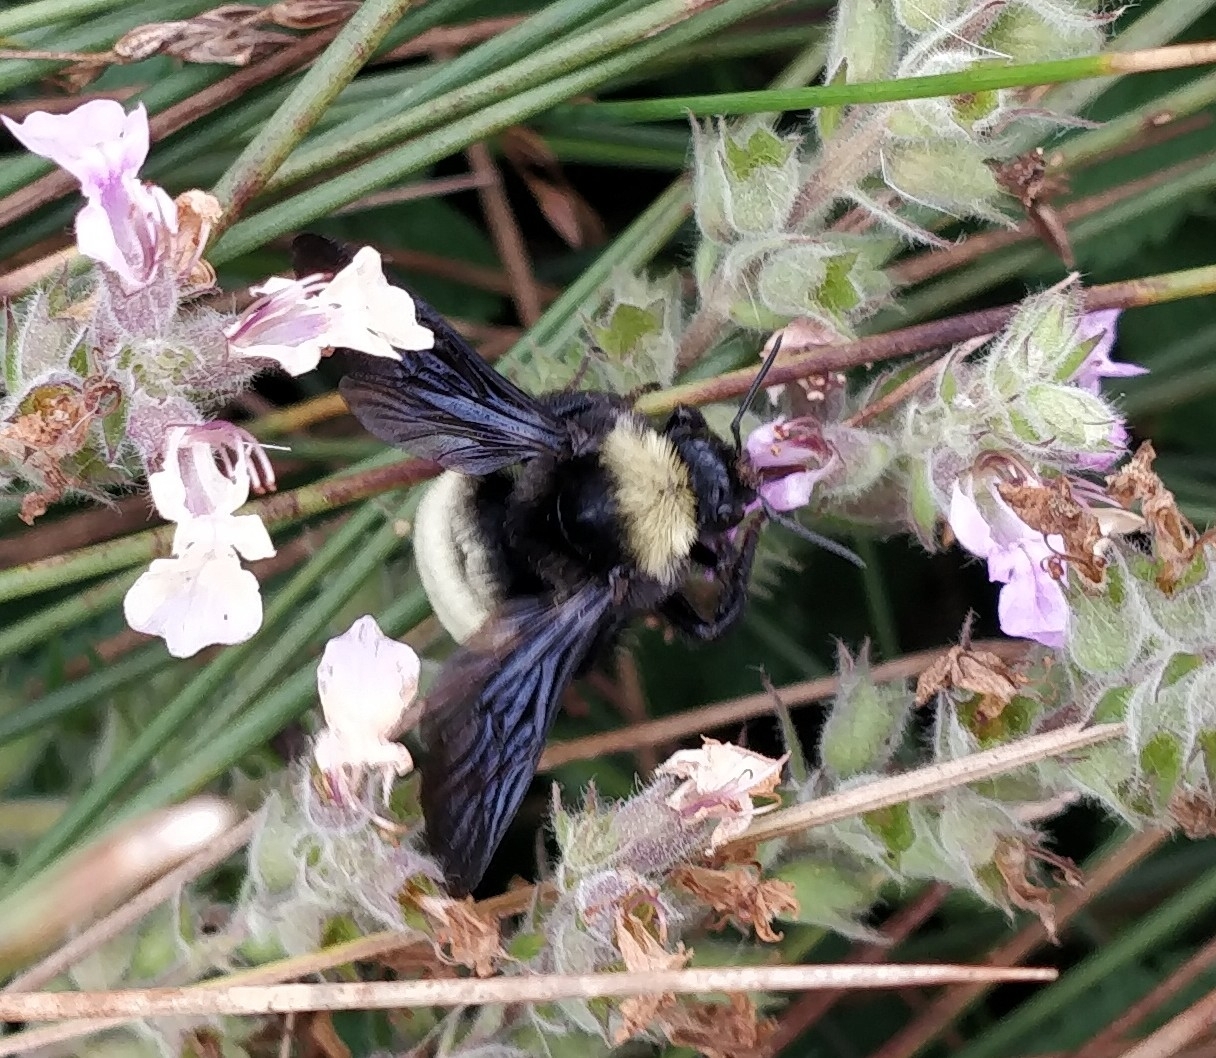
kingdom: Animalia
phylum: Arthropoda
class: Insecta
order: Hymenoptera
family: Apidae
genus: Bombus
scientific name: Bombus pensylvanicus
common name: Bumble bee
